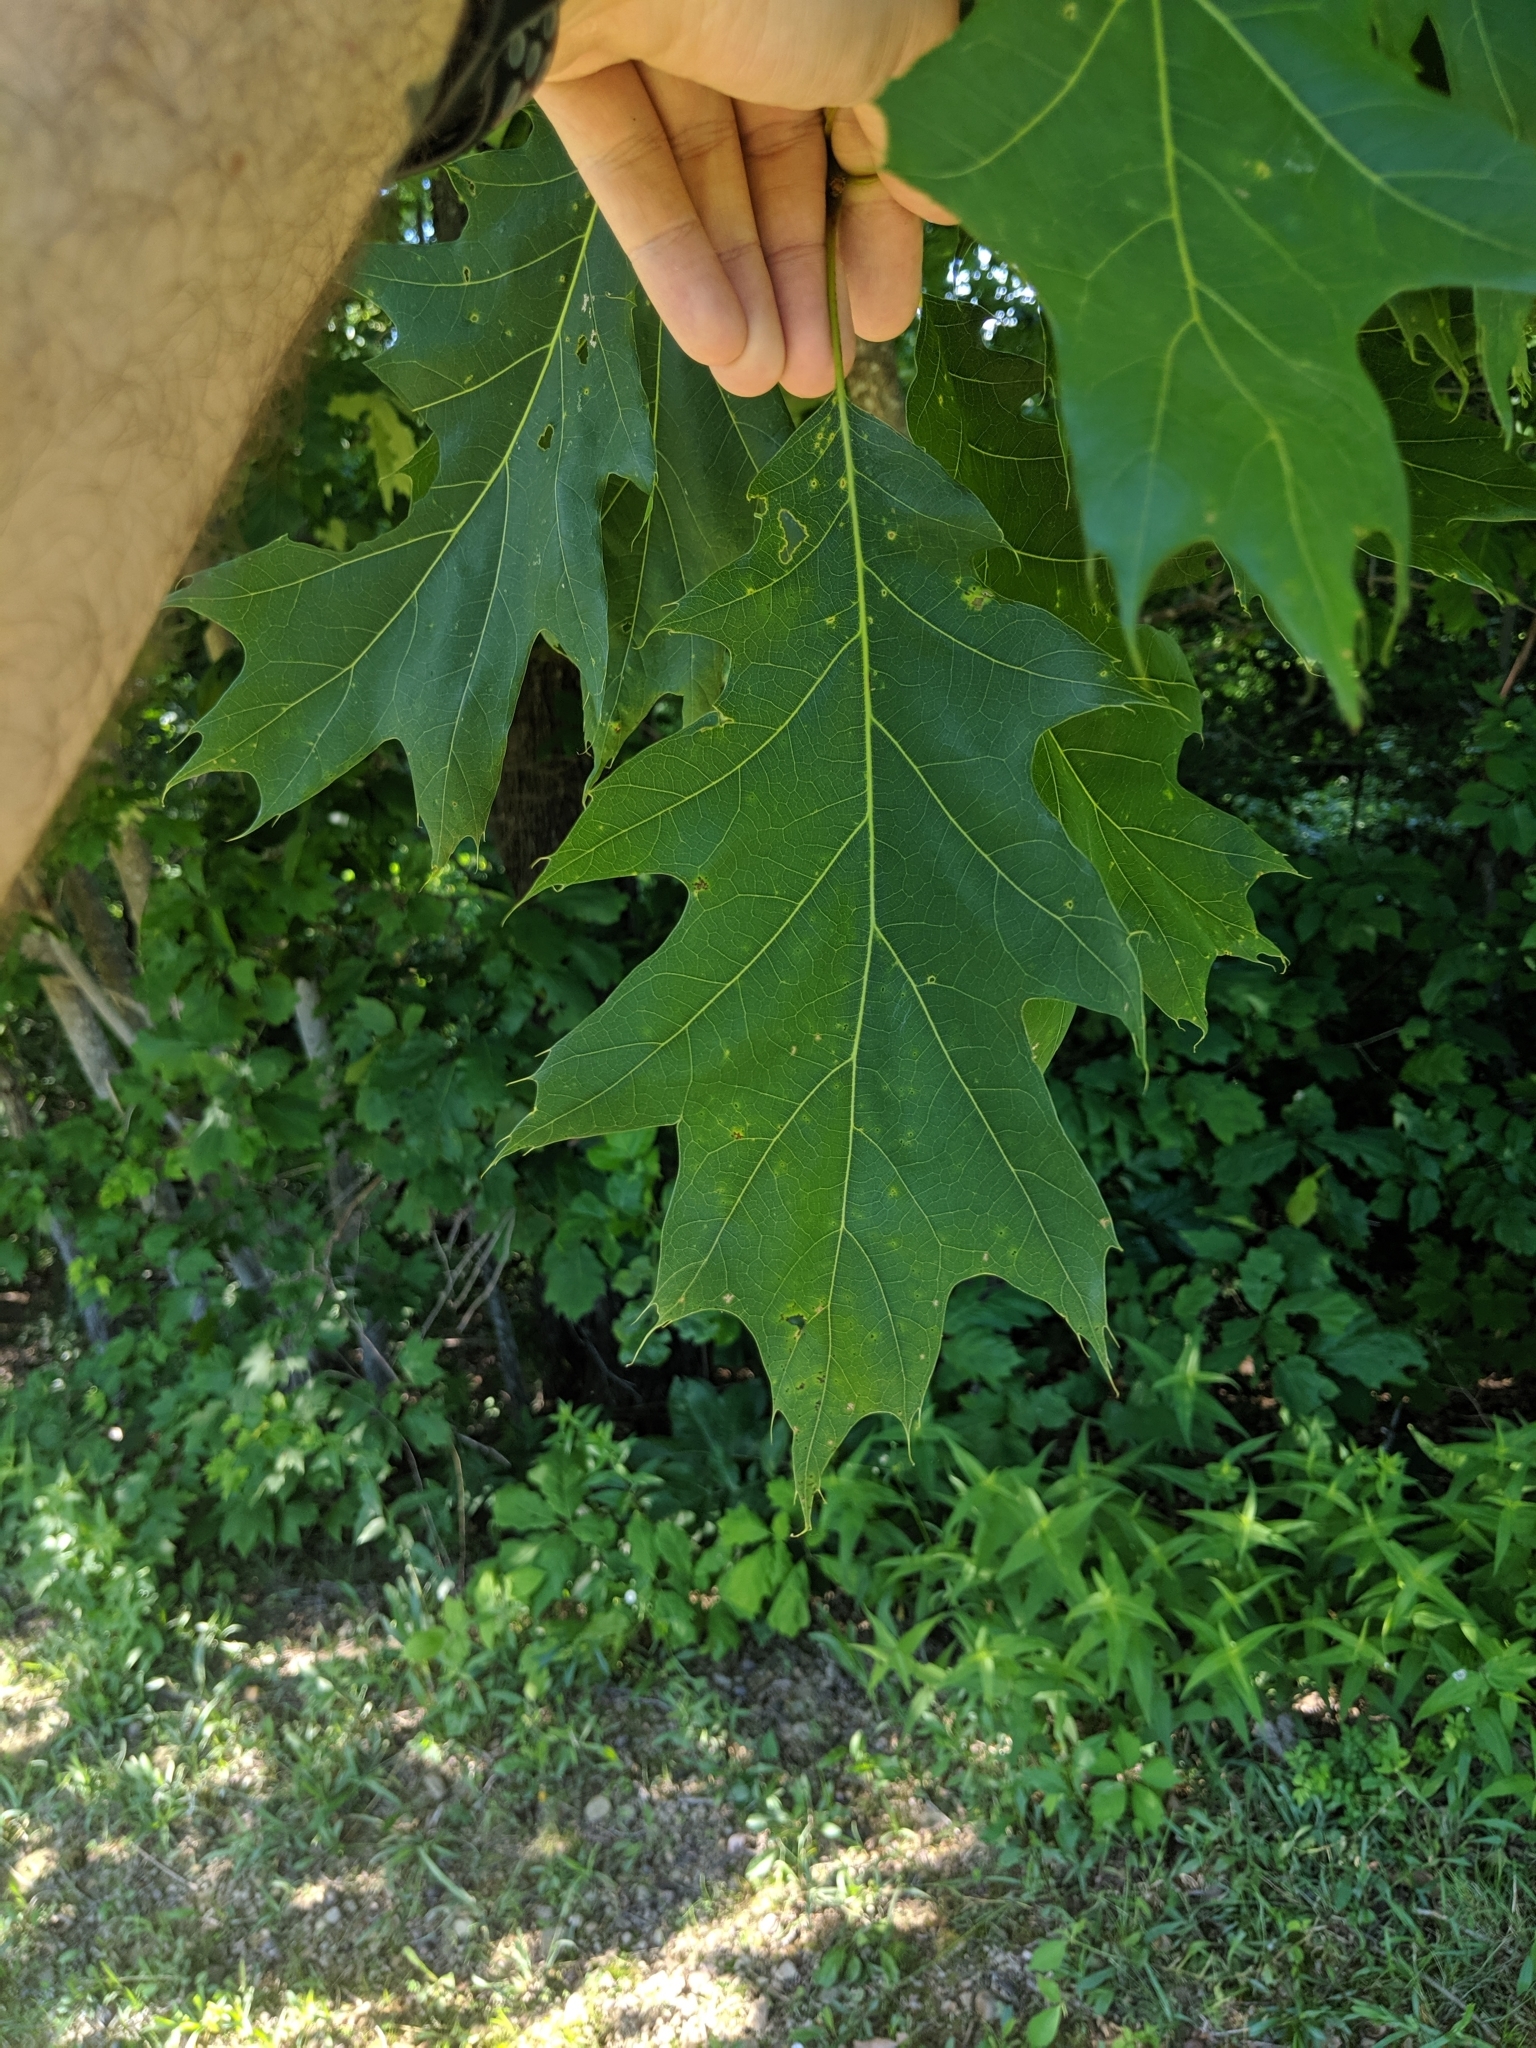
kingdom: Plantae
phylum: Tracheophyta
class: Magnoliopsida
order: Fagales
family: Fagaceae
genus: Quercus
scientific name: Quercus rubra
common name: Red oak
